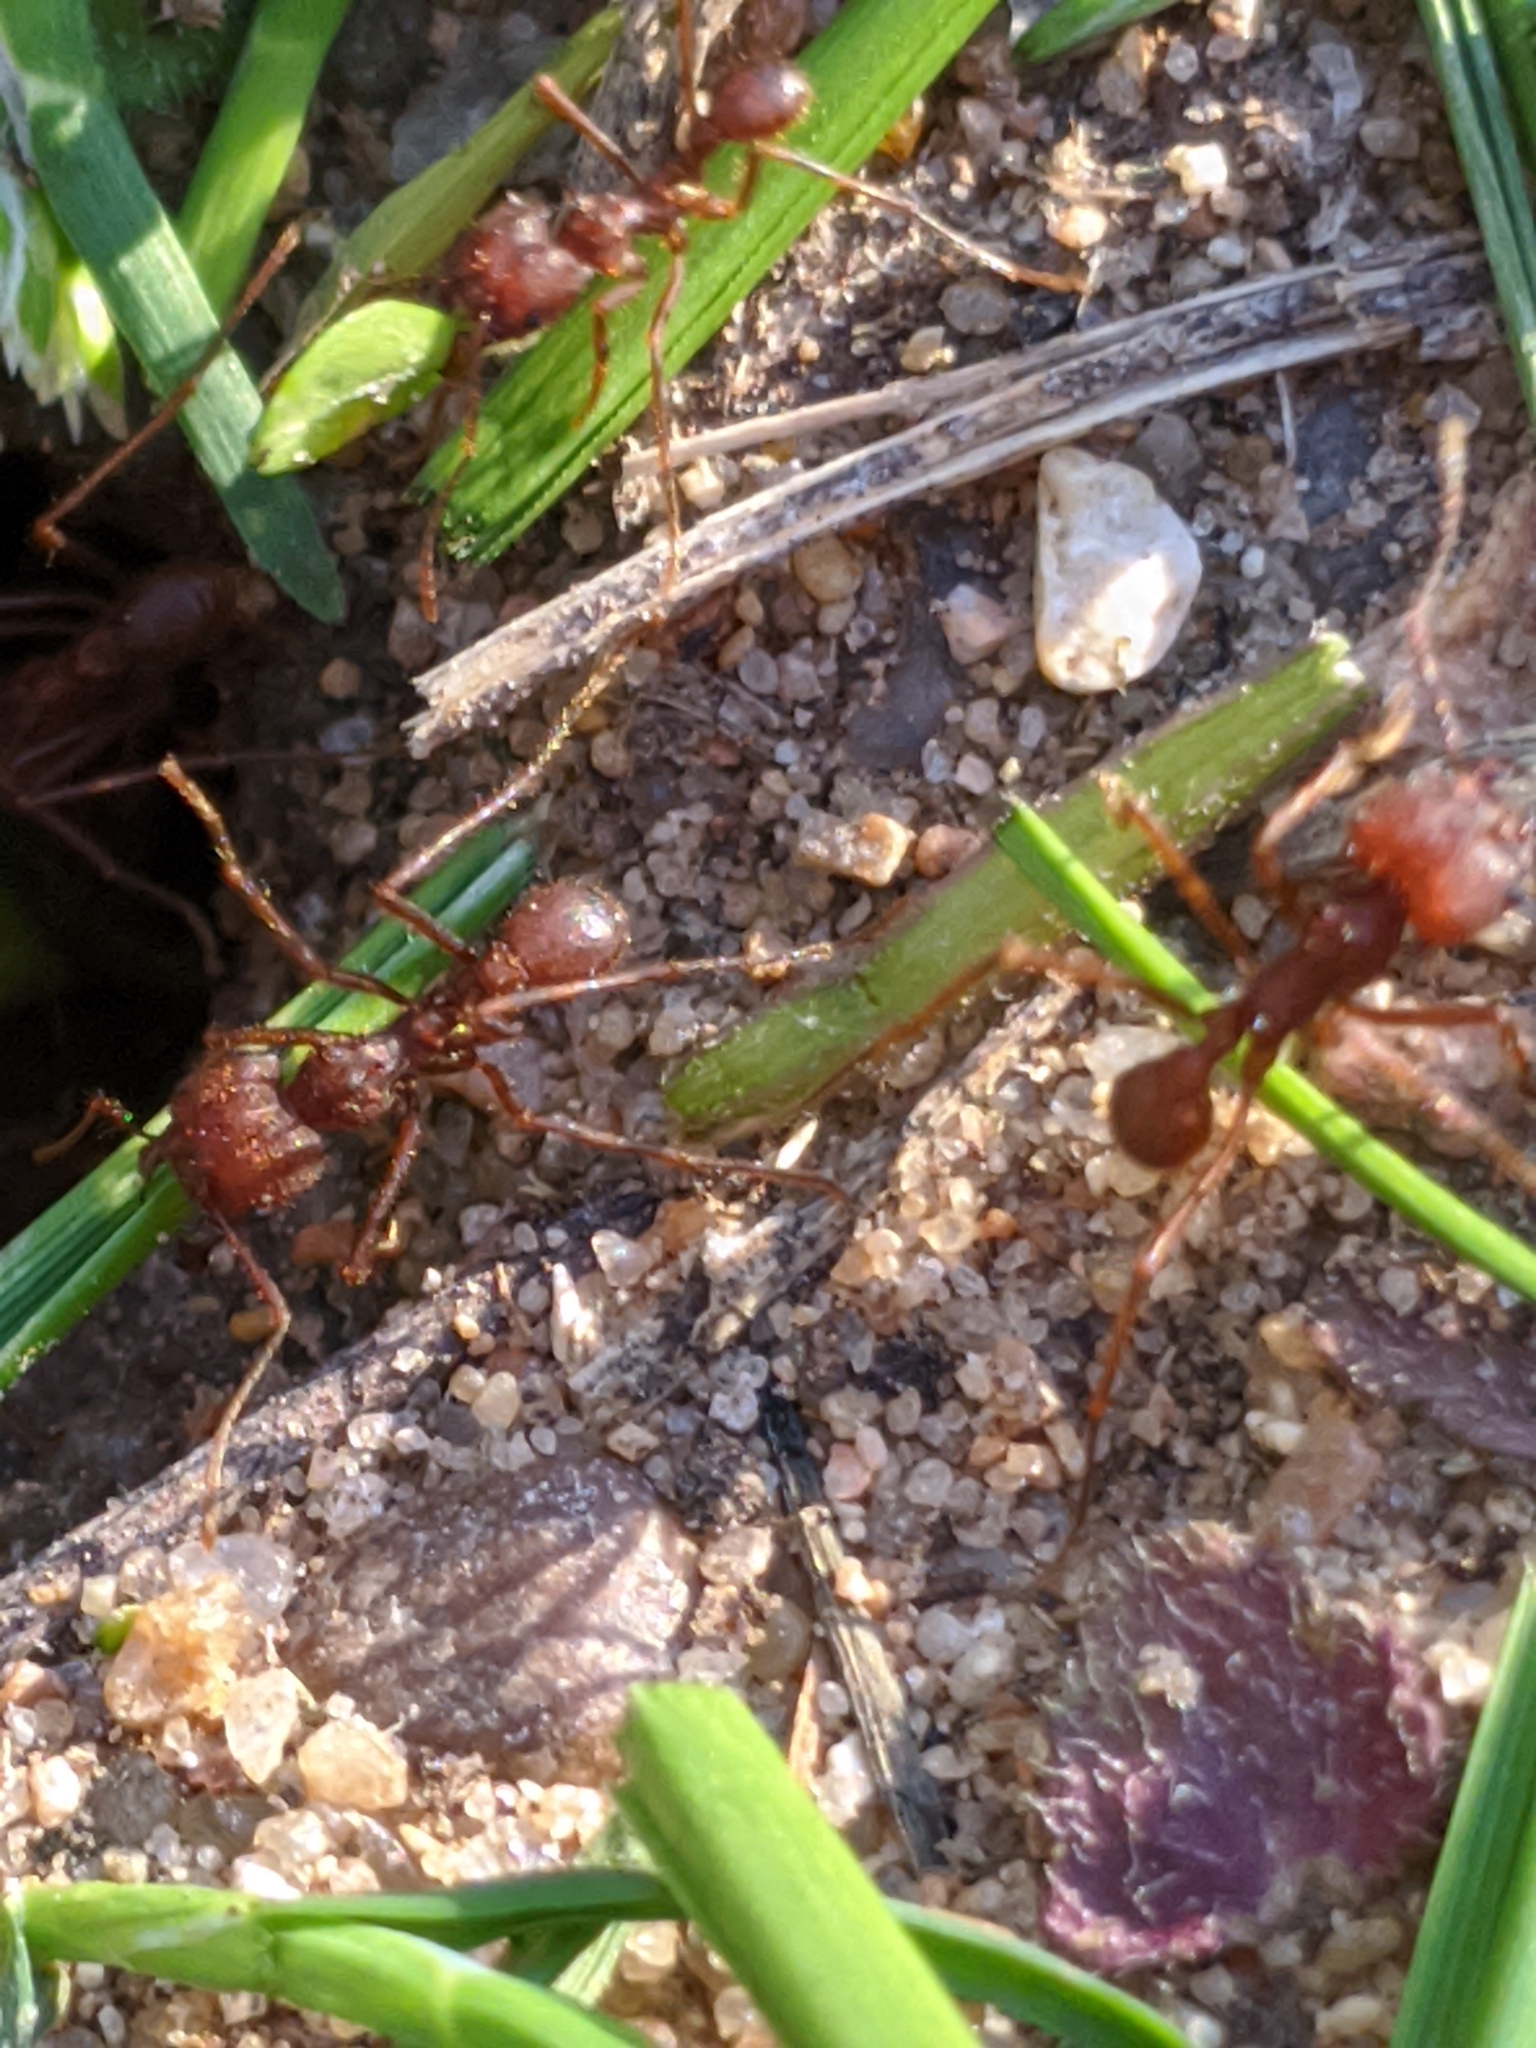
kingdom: Animalia
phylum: Arthropoda
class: Insecta
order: Hymenoptera
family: Formicidae
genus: Atta
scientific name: Atta texana
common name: Texas leafcutting ant
